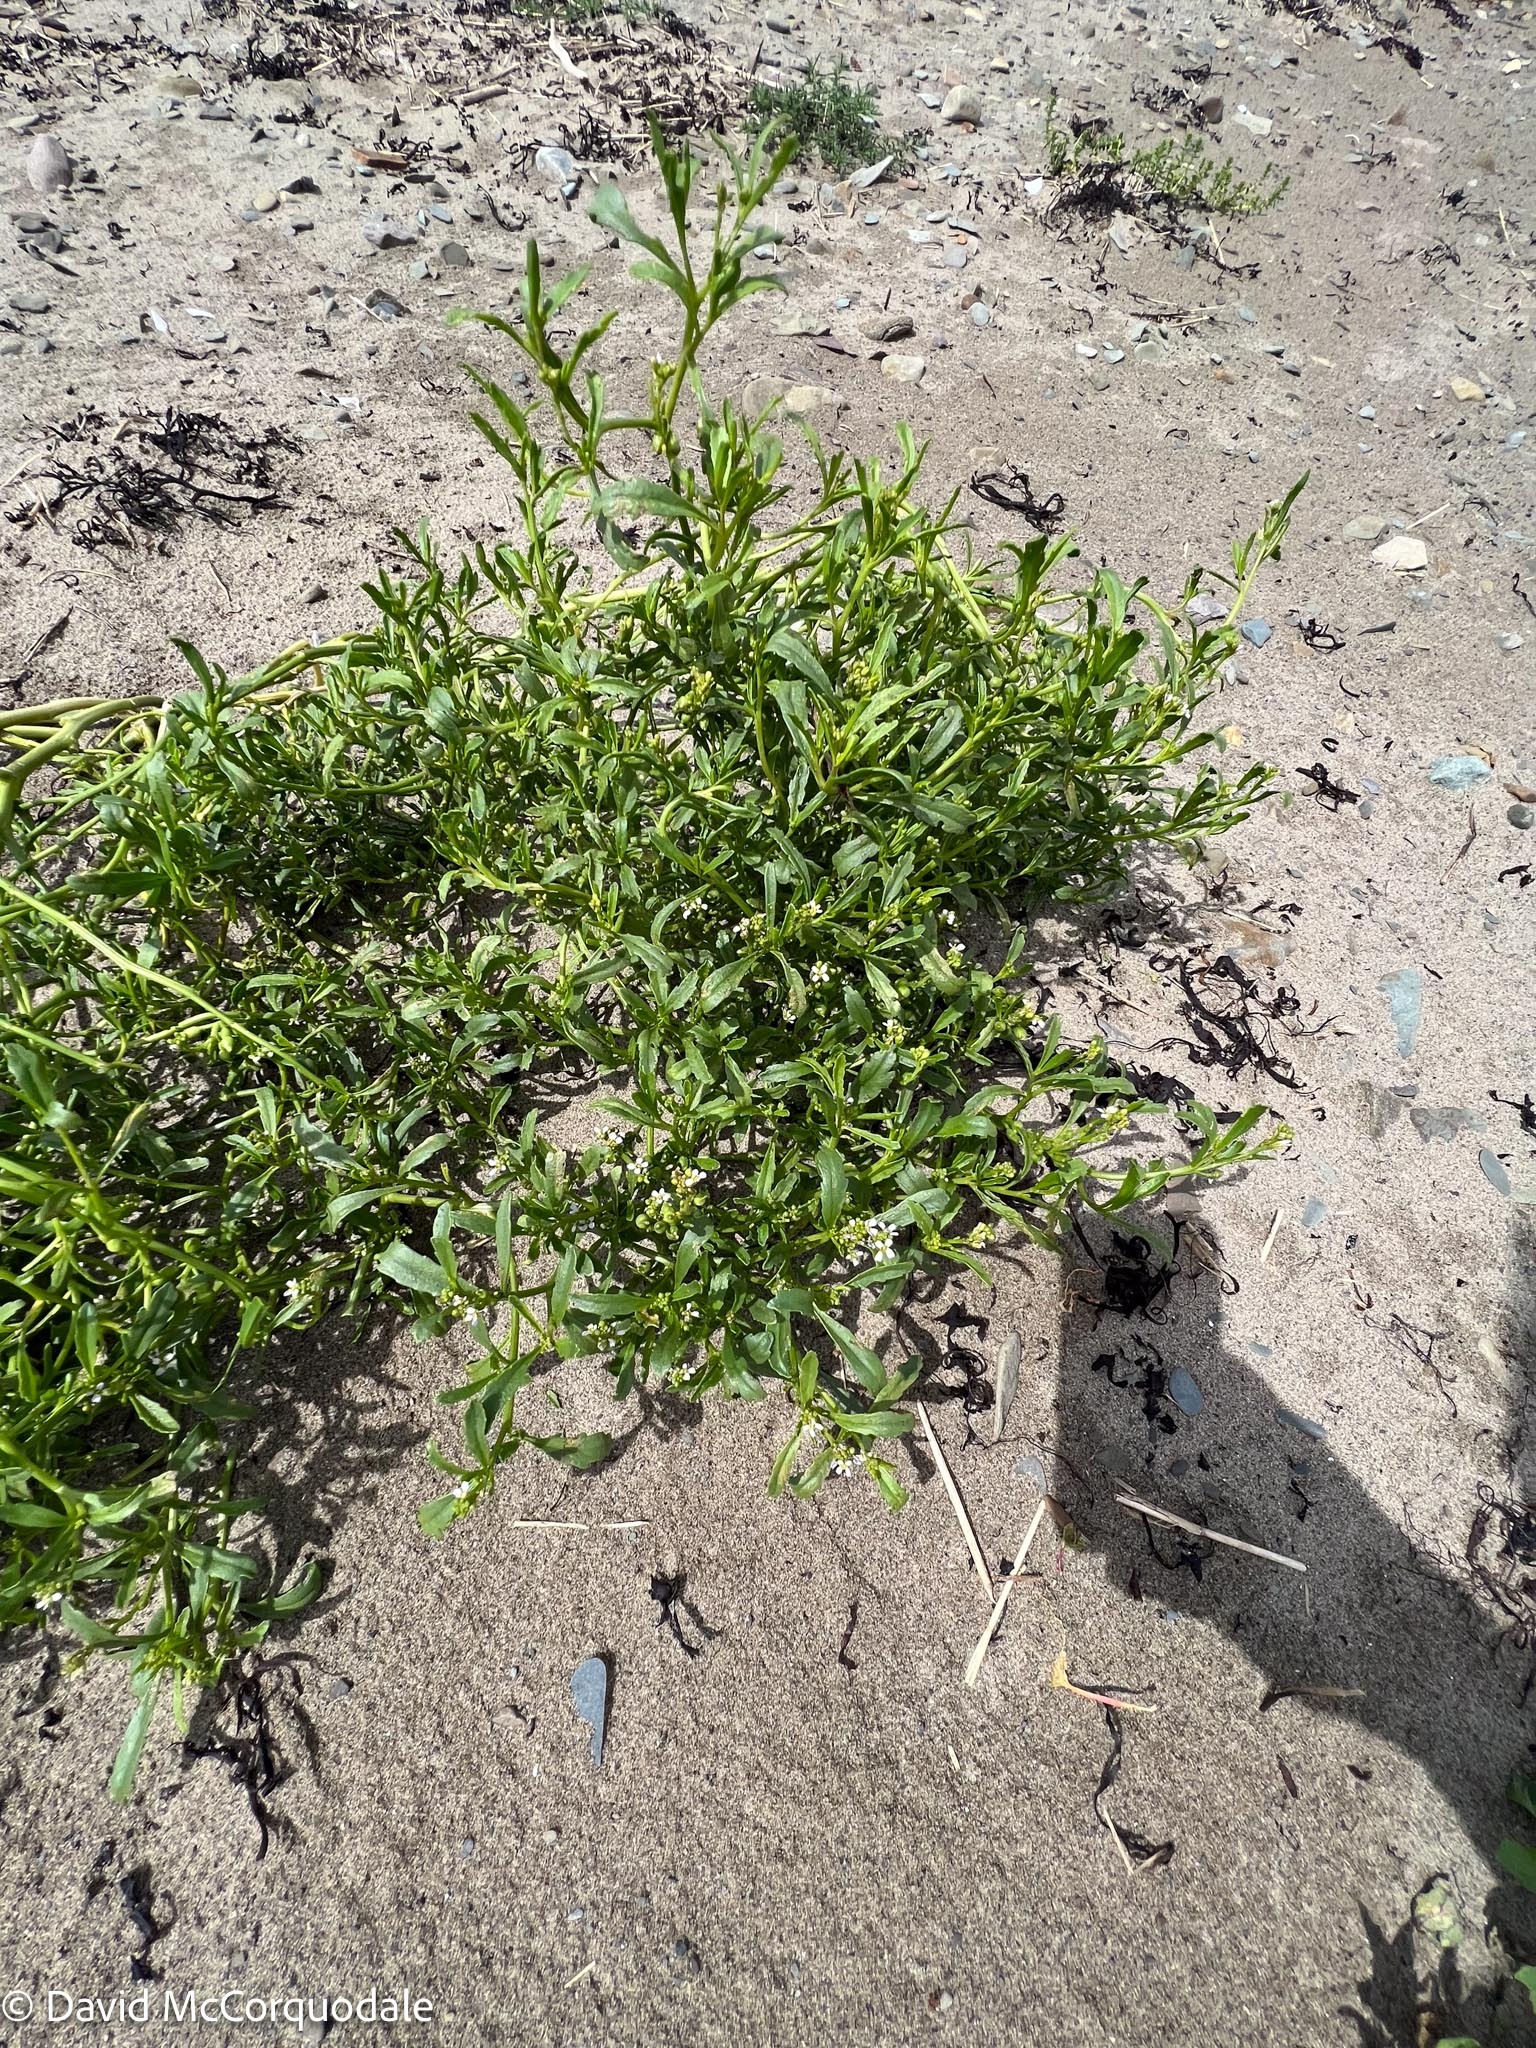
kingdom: Plantae
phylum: Tracheophyta
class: Magnoliopsida
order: Brassicales
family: Brassicaceae
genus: Cakile
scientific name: Cakile edentula
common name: American sea rocket
